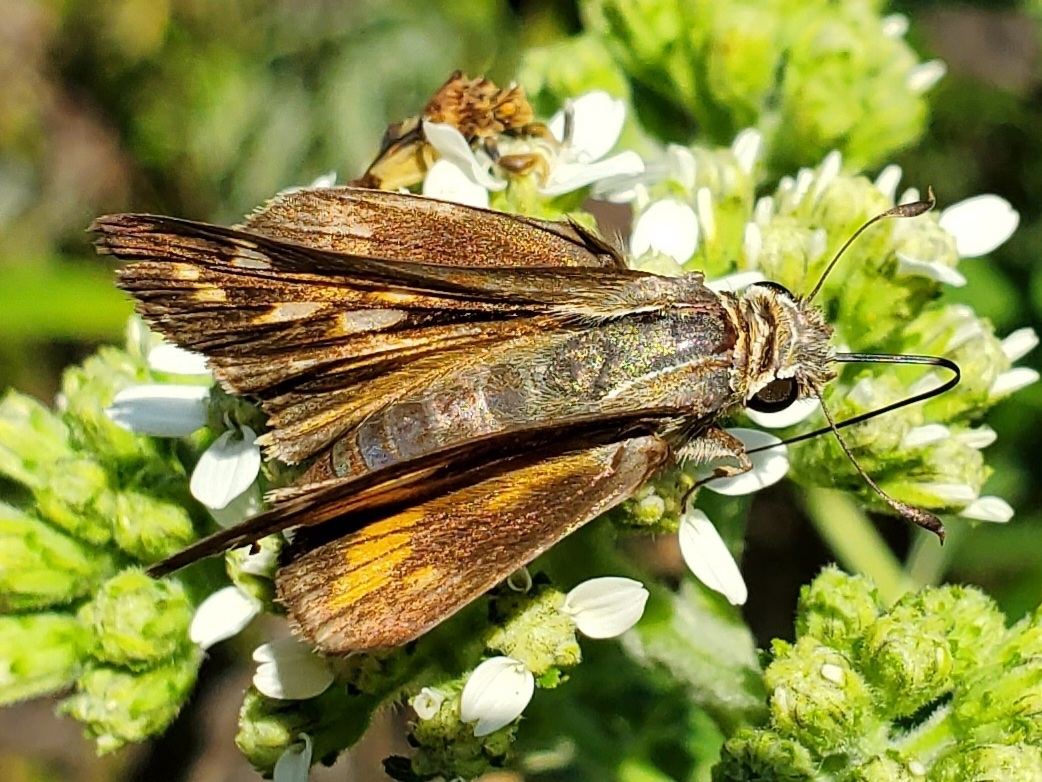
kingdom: Animalia
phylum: Arthropoda
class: Insecta
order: Lepidoptera
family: Hesperiidae
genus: Atalopedes
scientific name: Atalopedes
